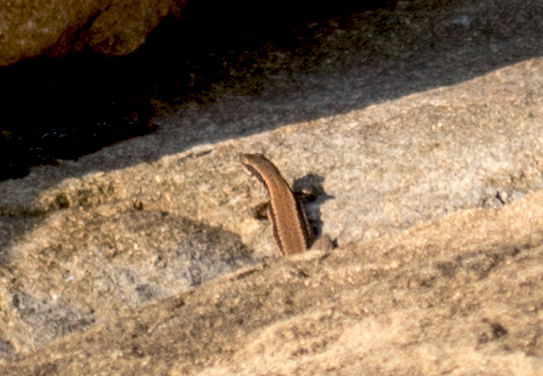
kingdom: Animalia
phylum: Chordata
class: Squamata
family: Lacertidae
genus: Podarcis
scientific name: Podarcis muralis
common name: Common wall lizard
